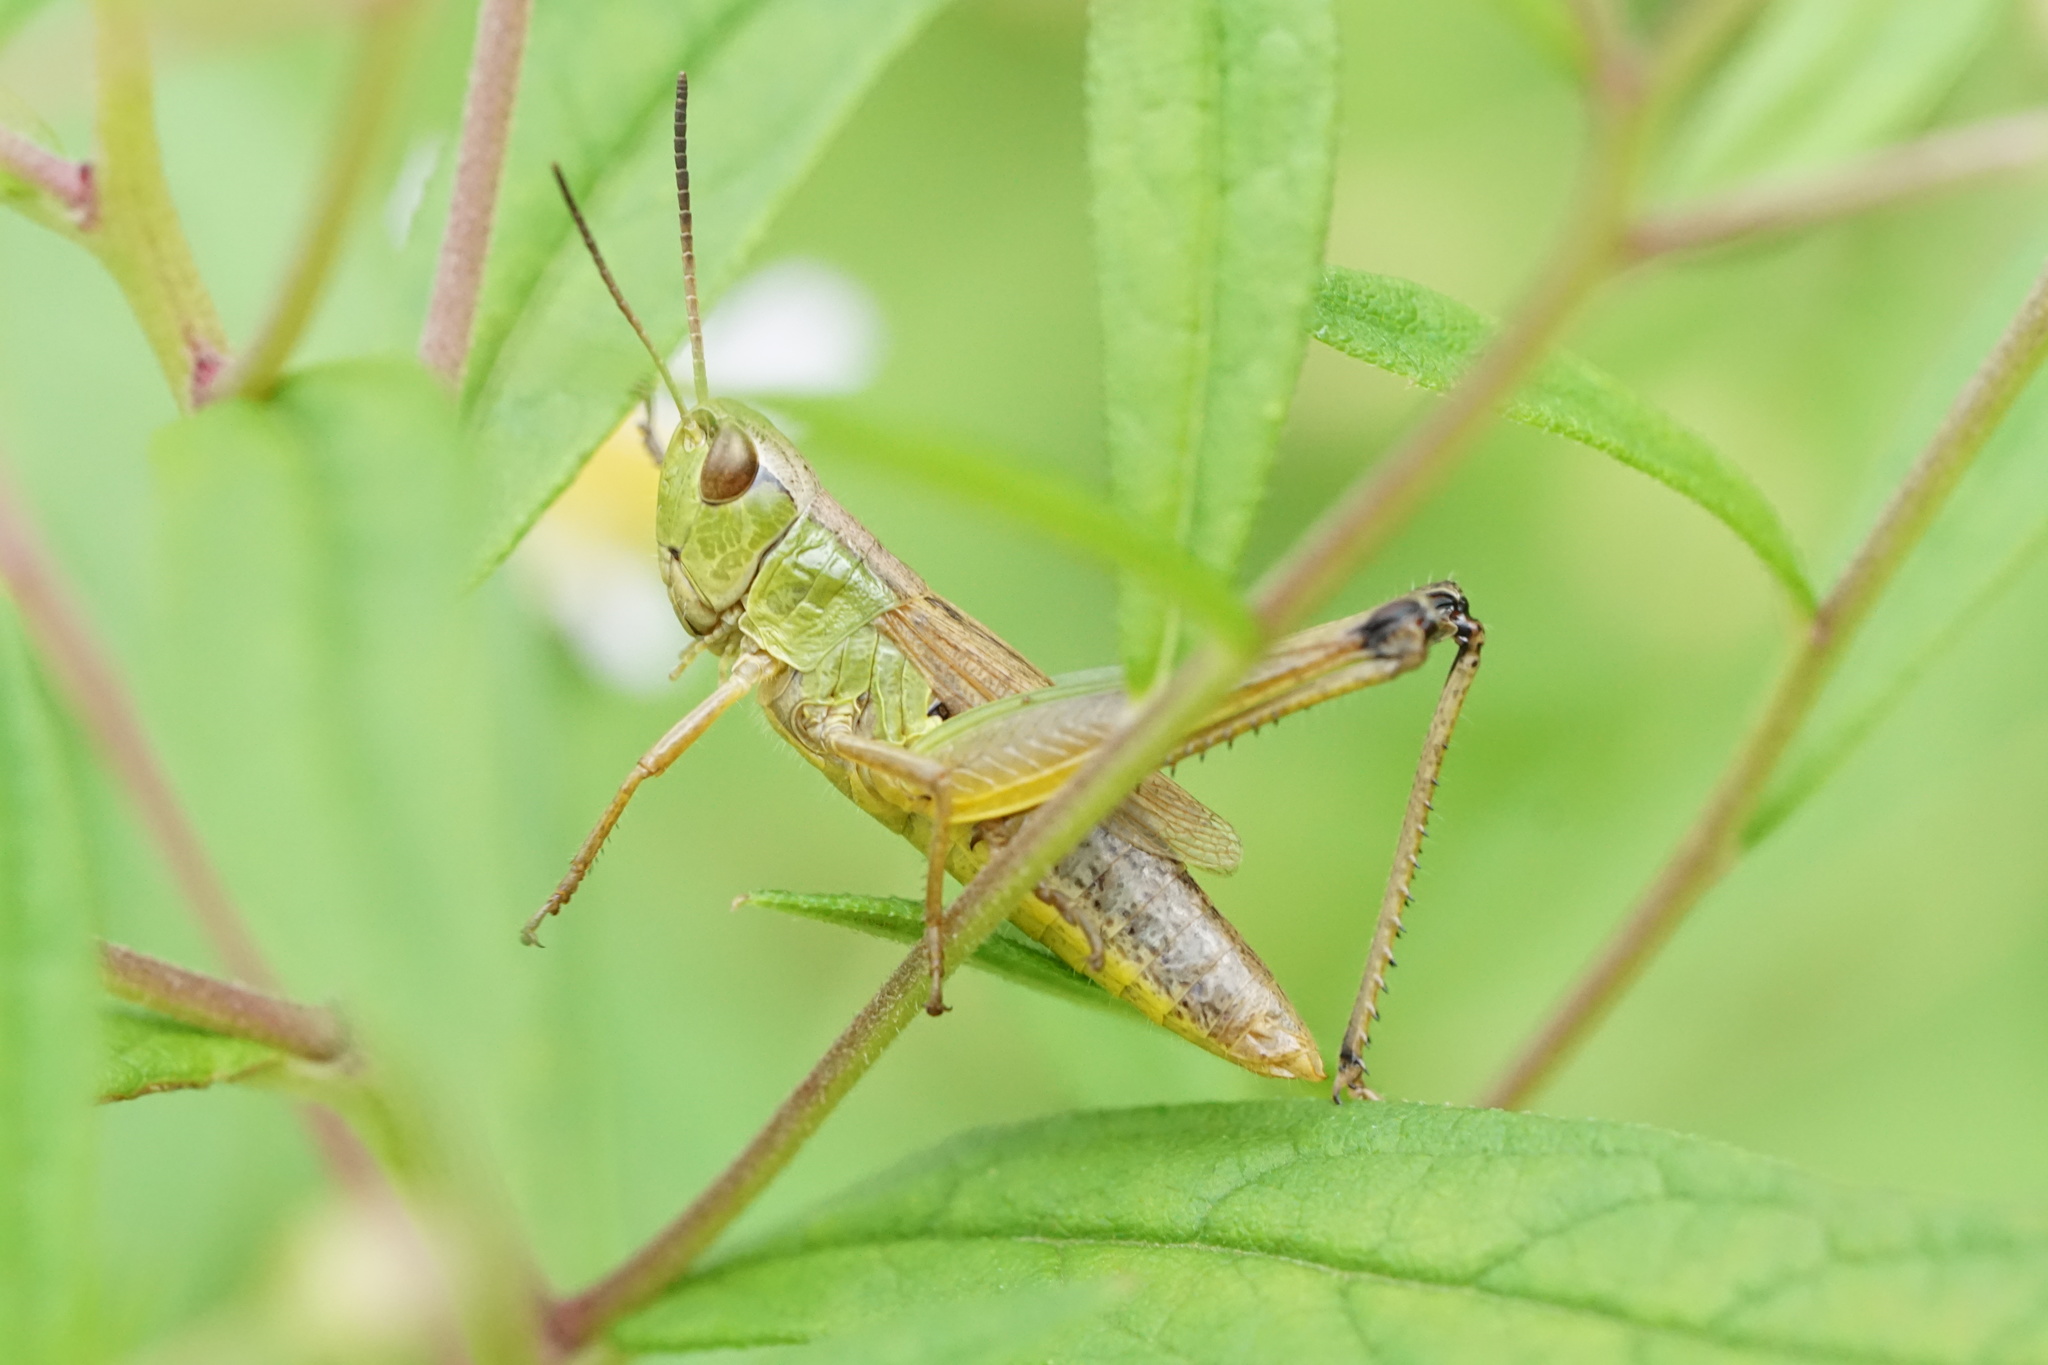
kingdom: Animalia
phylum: Arthropoda
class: Insecta
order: Orthoptera
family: Acrididae
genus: Pseudochorthippus
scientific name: Pseudochorthippus curtipennis
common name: Marsh meadow grasshopper
